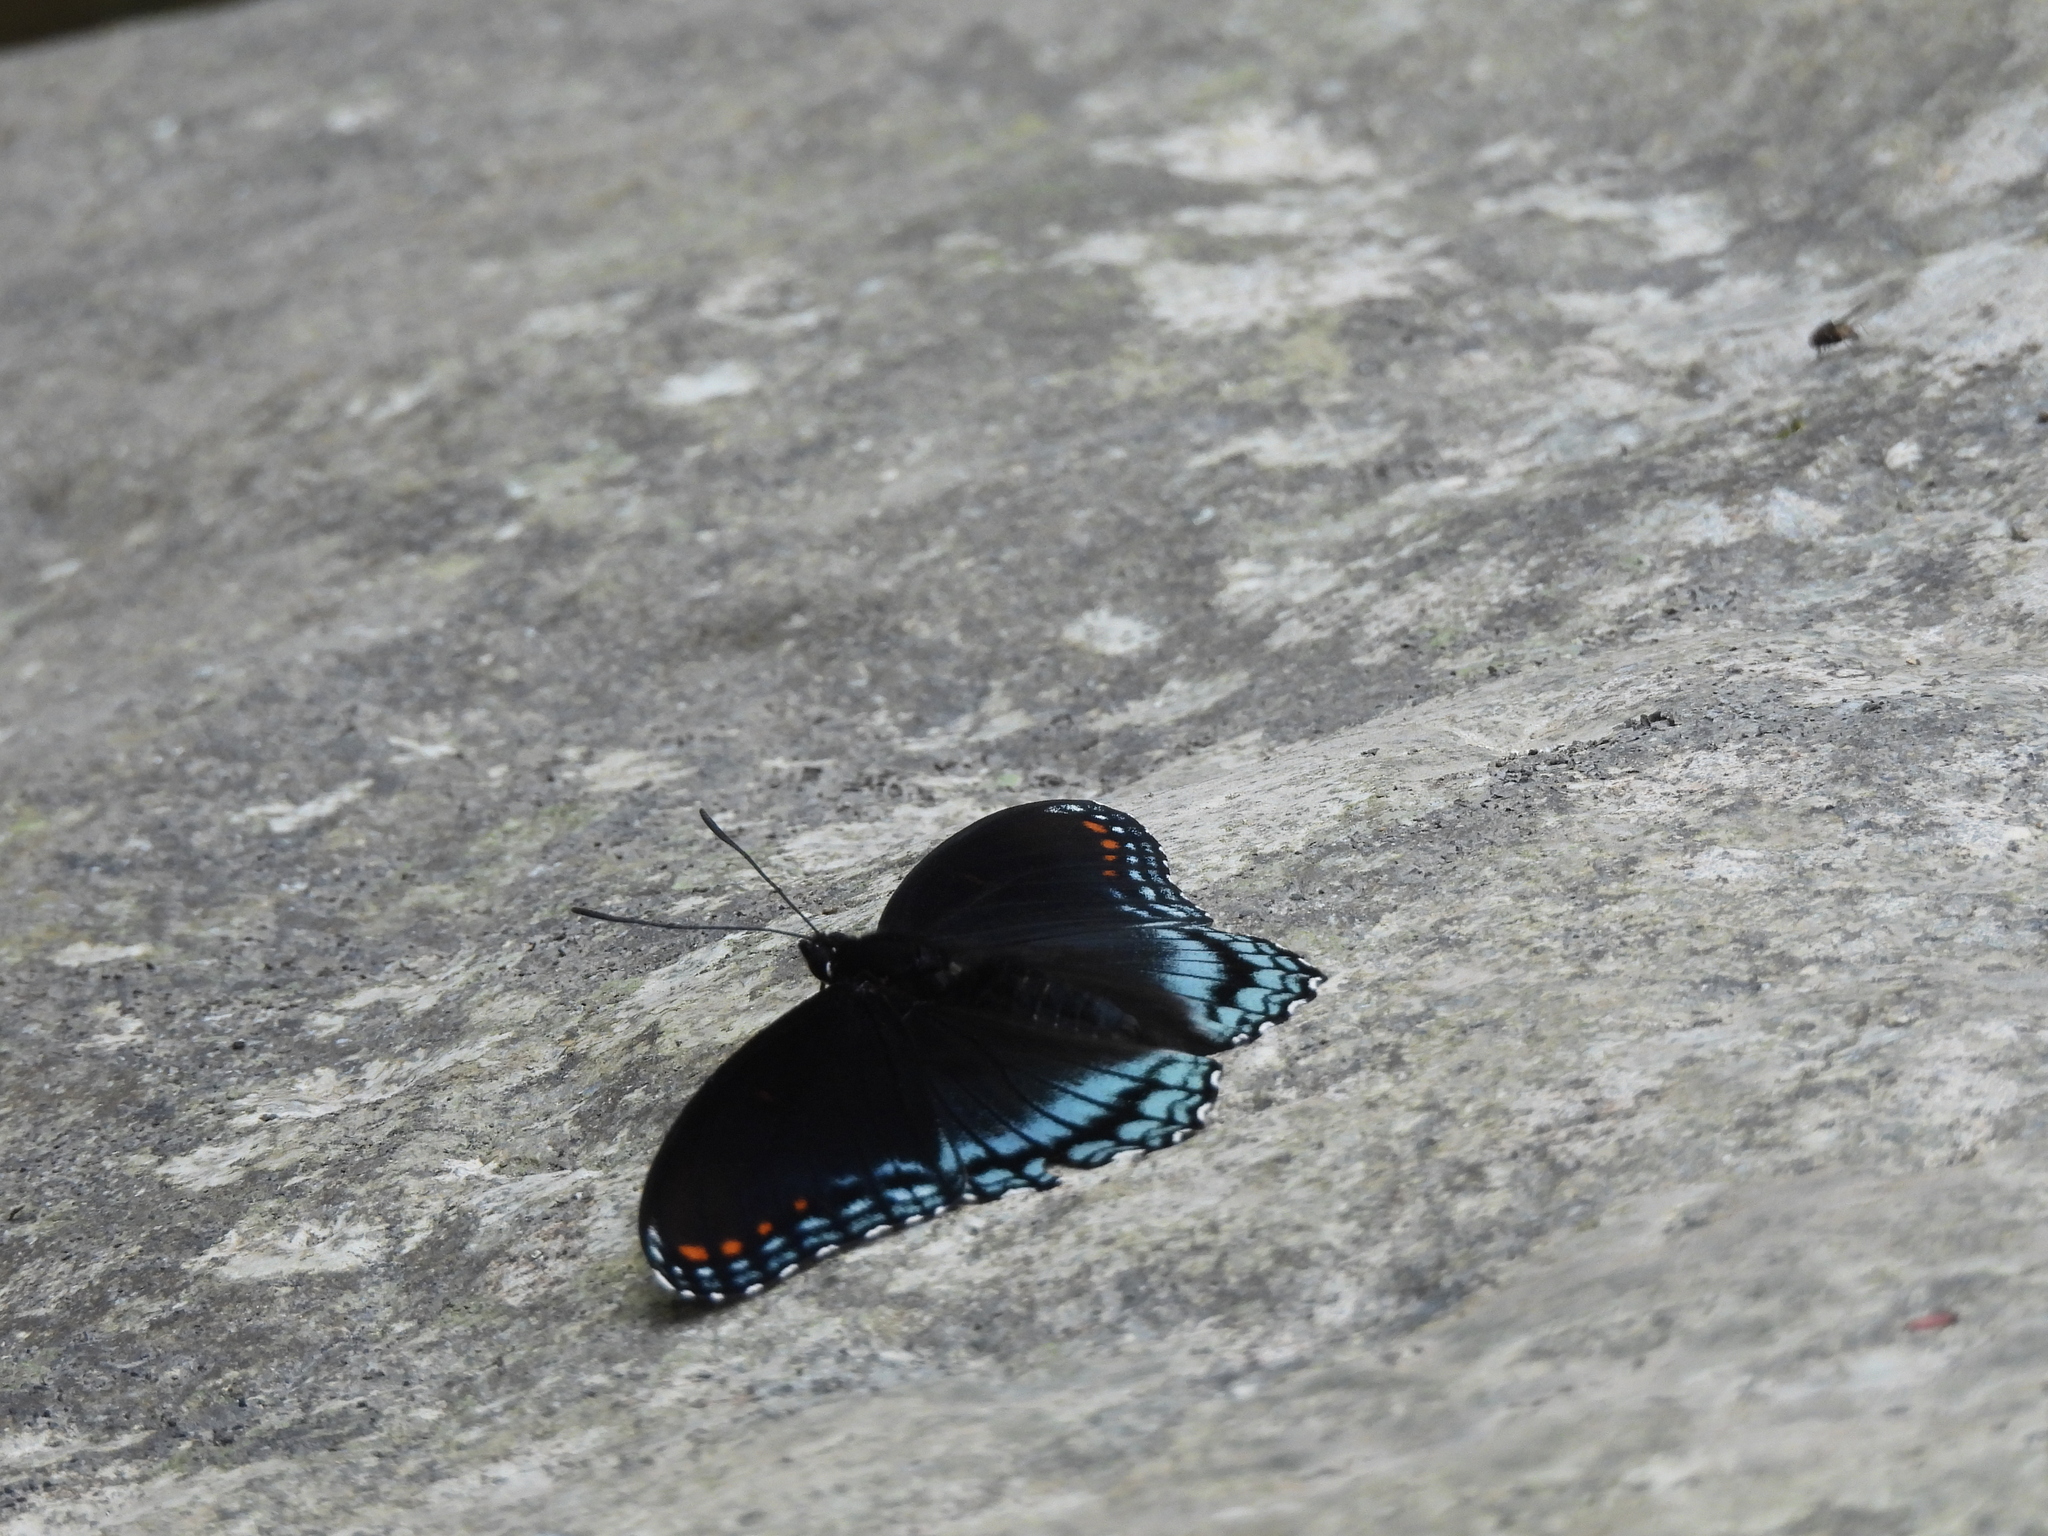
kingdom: Animalia
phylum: Arthropoda
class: Insecta
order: Lepidoptera
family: Nymphalidae
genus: Limenitis
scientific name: Limenitis arthemis
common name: Red-spotted admiral
